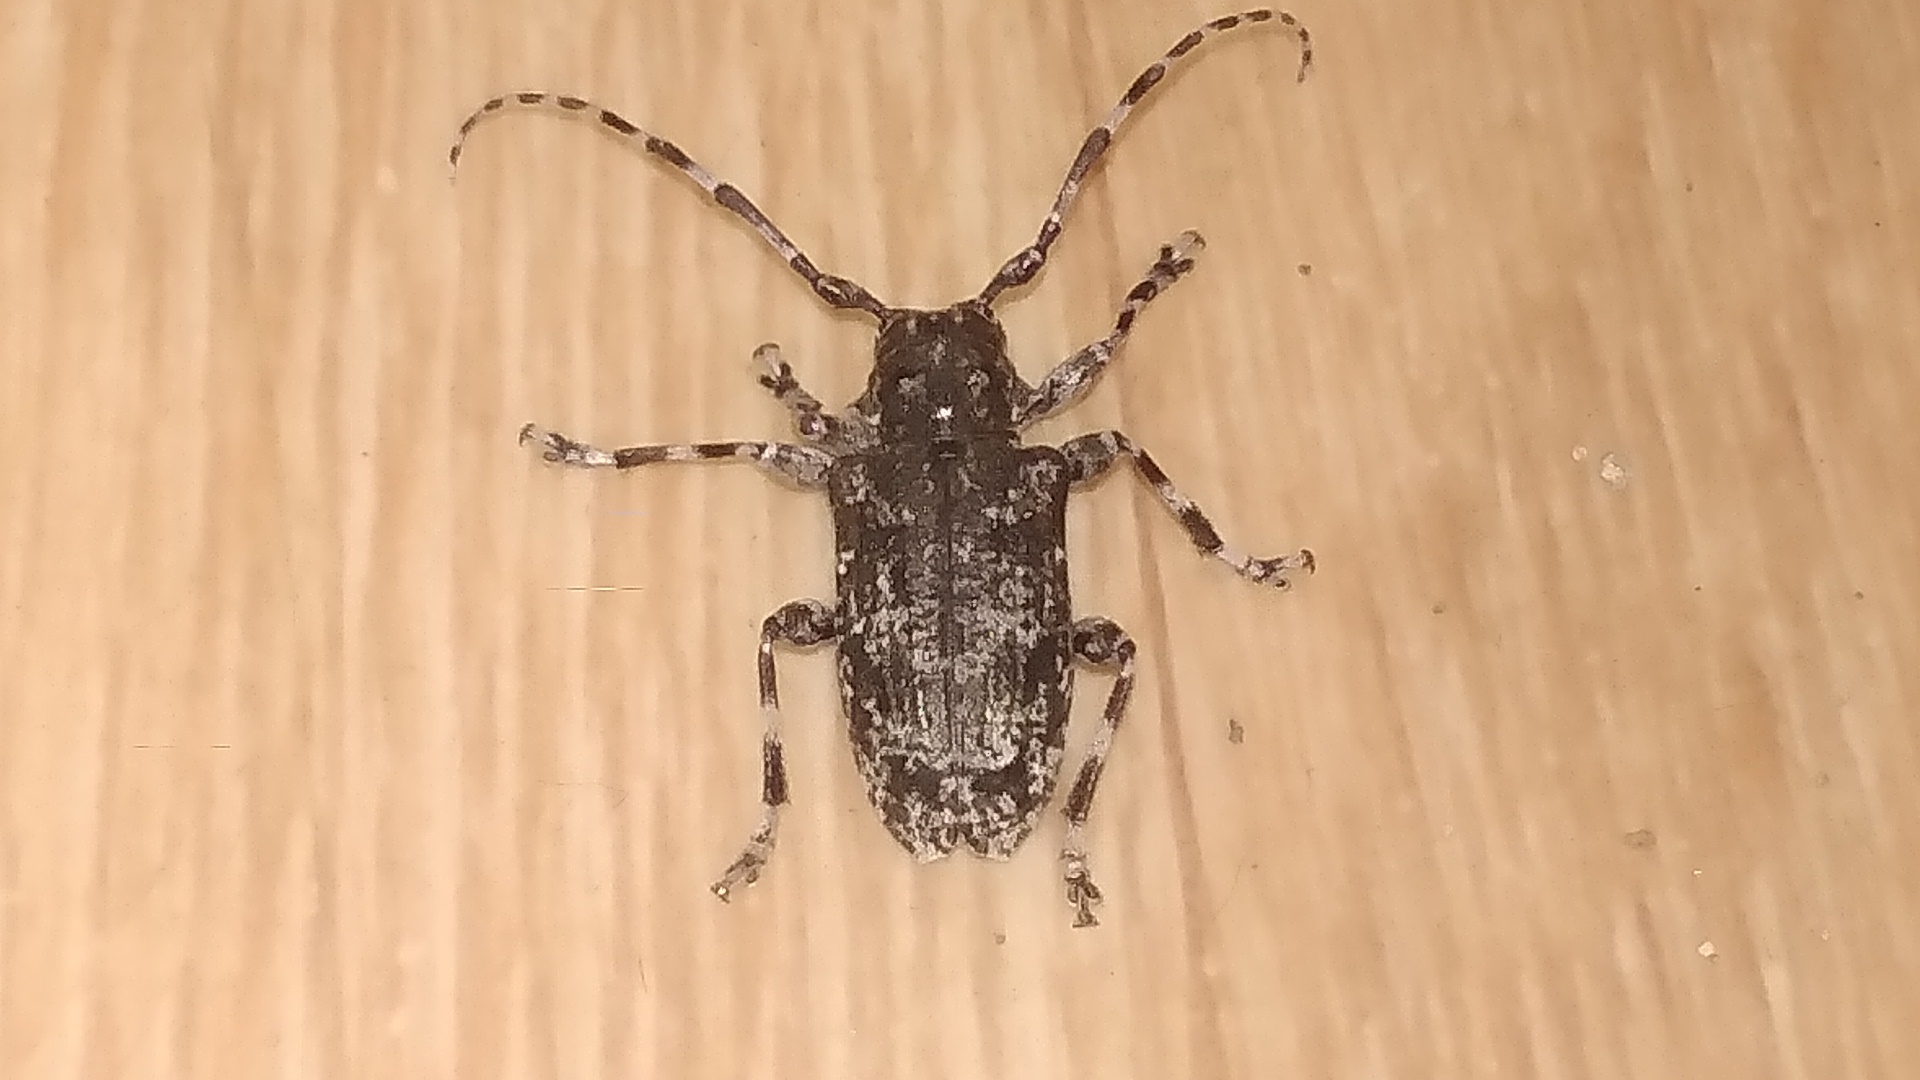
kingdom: Animalia
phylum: Arthropoda
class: Insecta
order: Coleoptera
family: Cerambycidae
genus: Aegomorphus
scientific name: Aegomorphus clavipes
